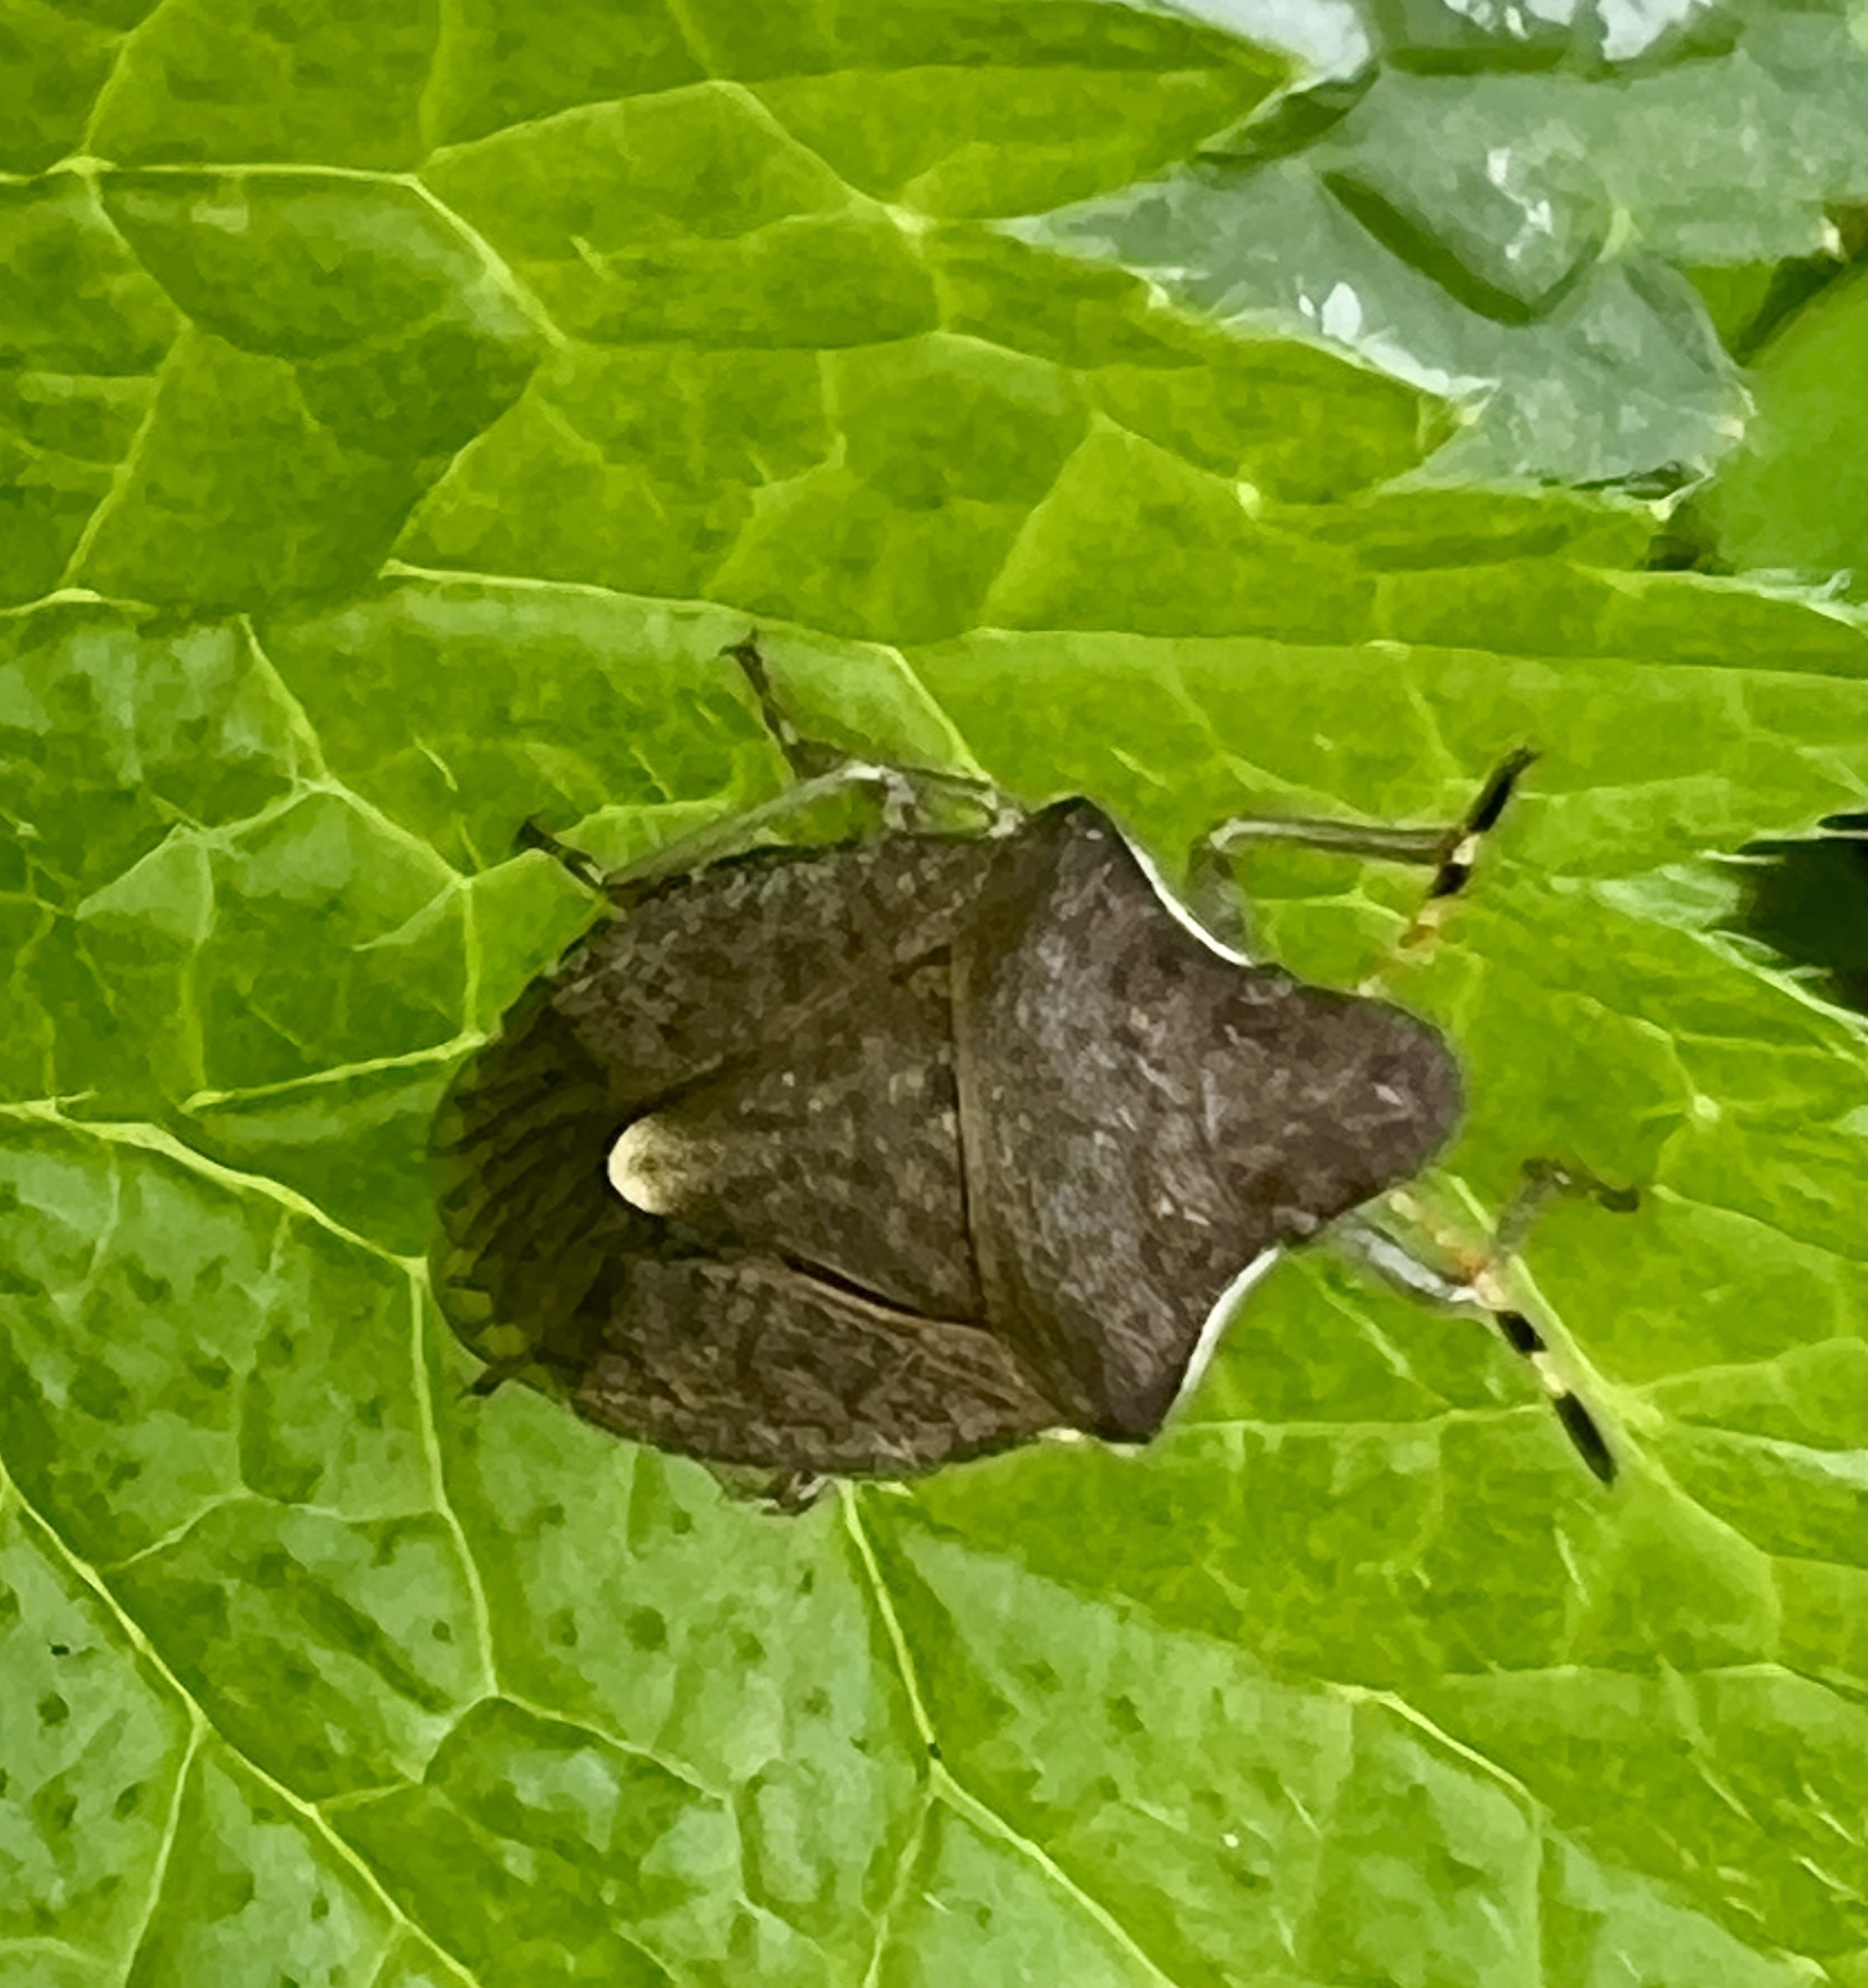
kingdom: Animalia
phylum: Arthropoda
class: Insecta
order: Hemiptera
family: Pentatomidae
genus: Holcostethus
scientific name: Holcostethus strictus
